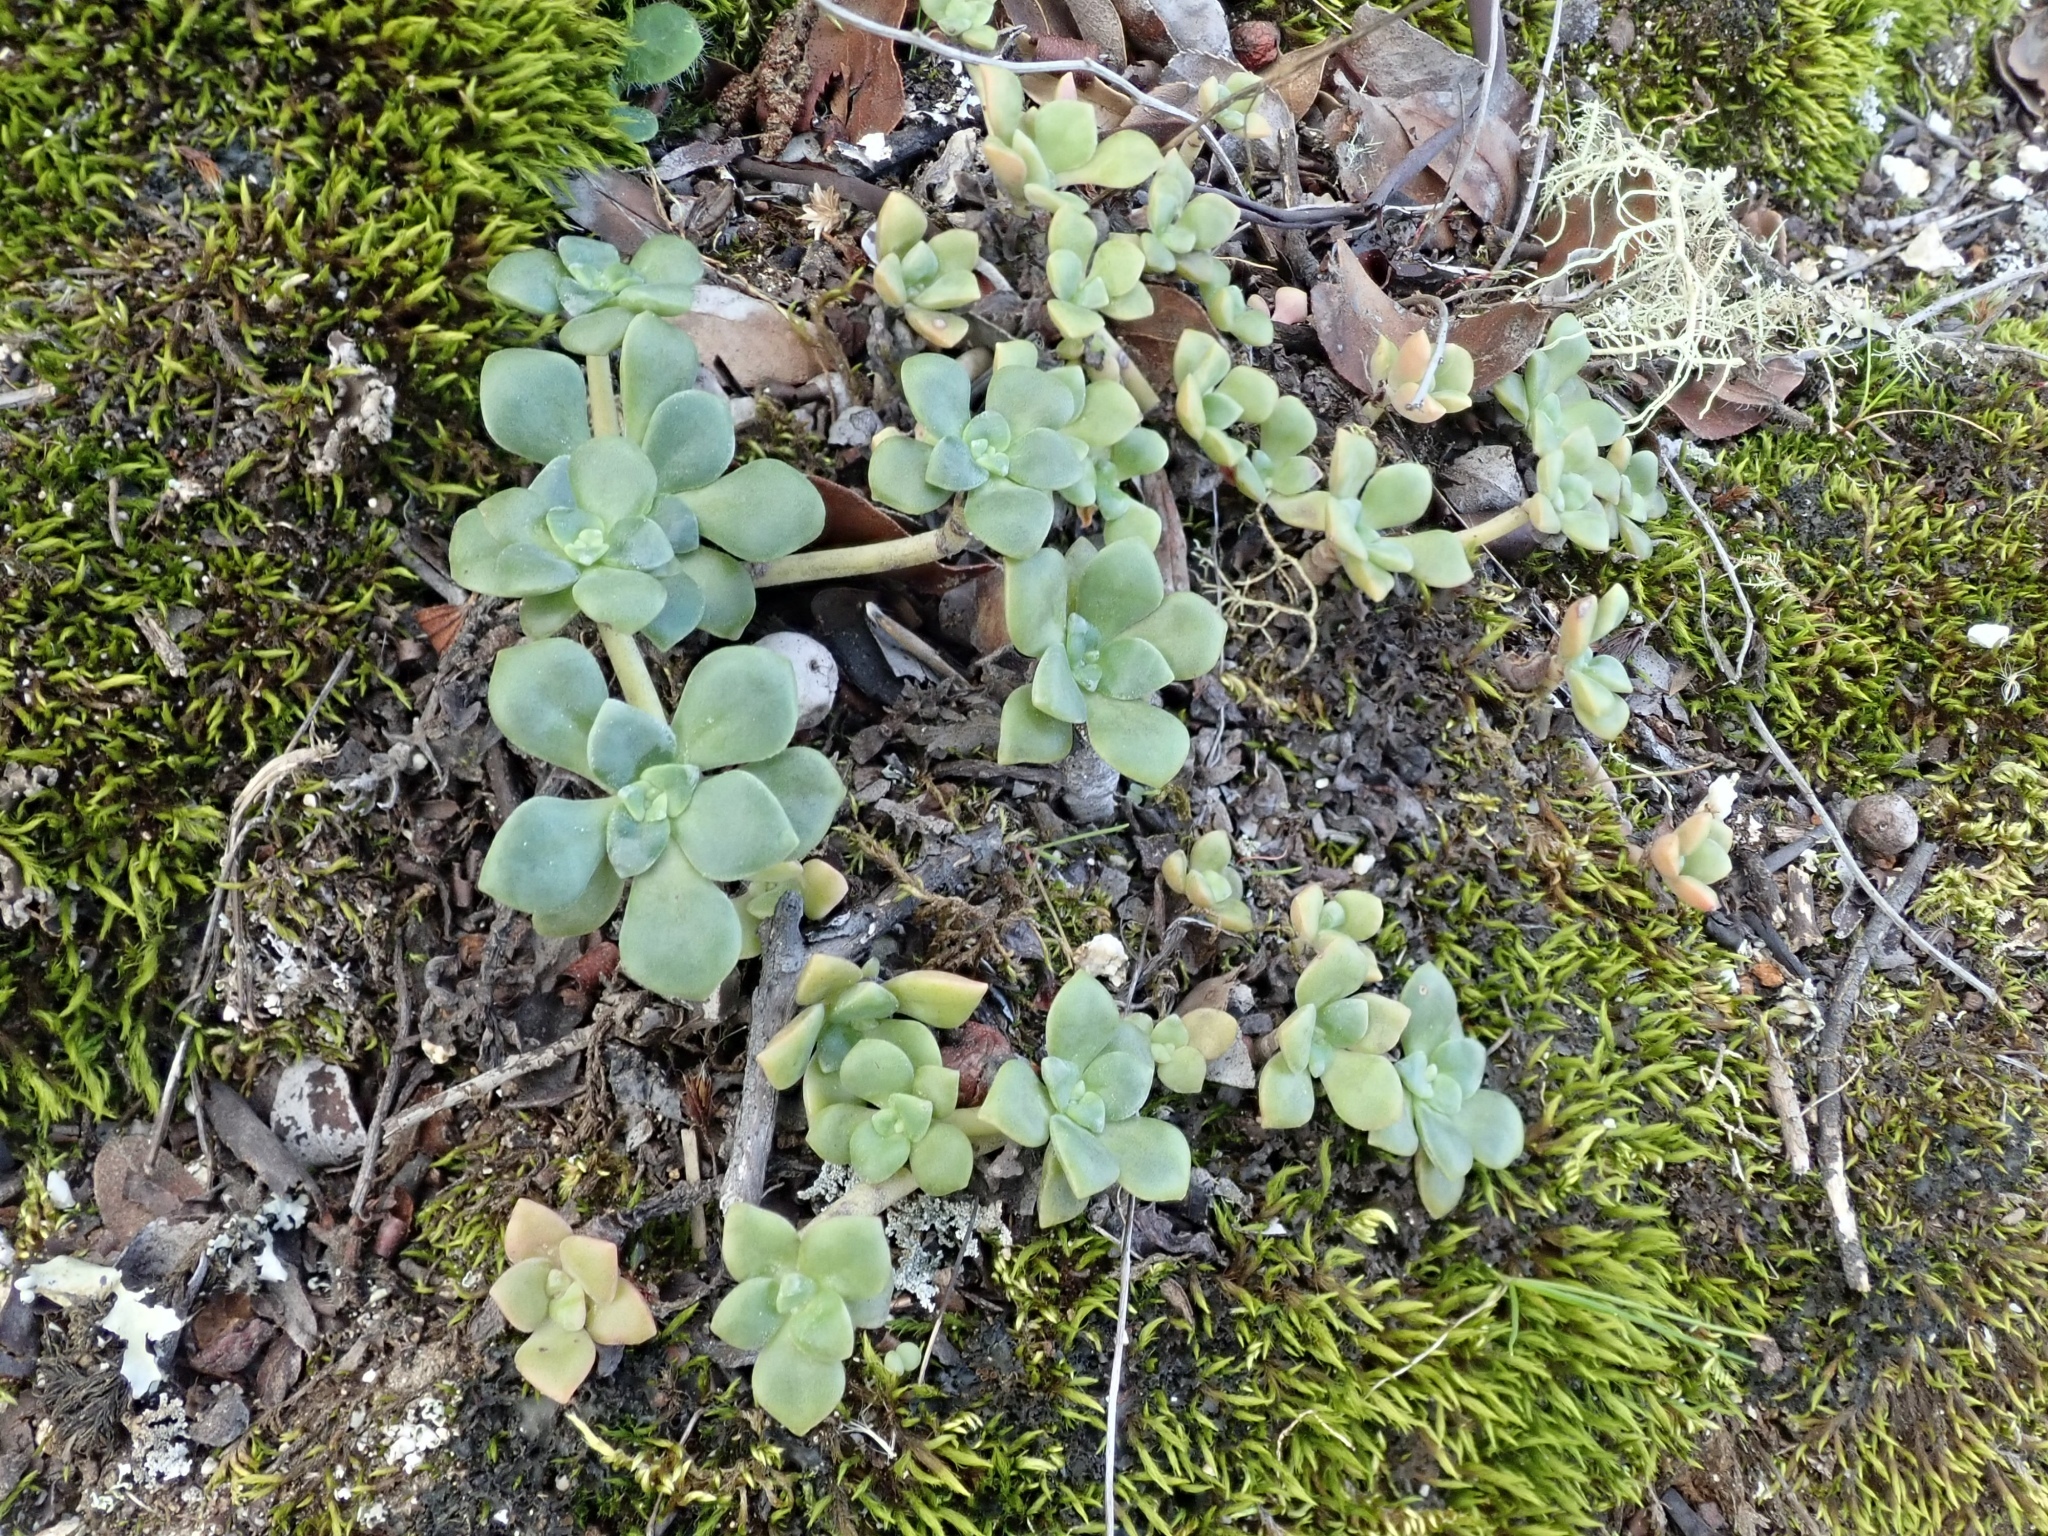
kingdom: Plantae
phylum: Tracheophyta
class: Magnoliopsida
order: Saxifragales
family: Crassulaceae
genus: Sedum
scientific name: Sedum spathulifolium
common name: Colorado stonecrop
